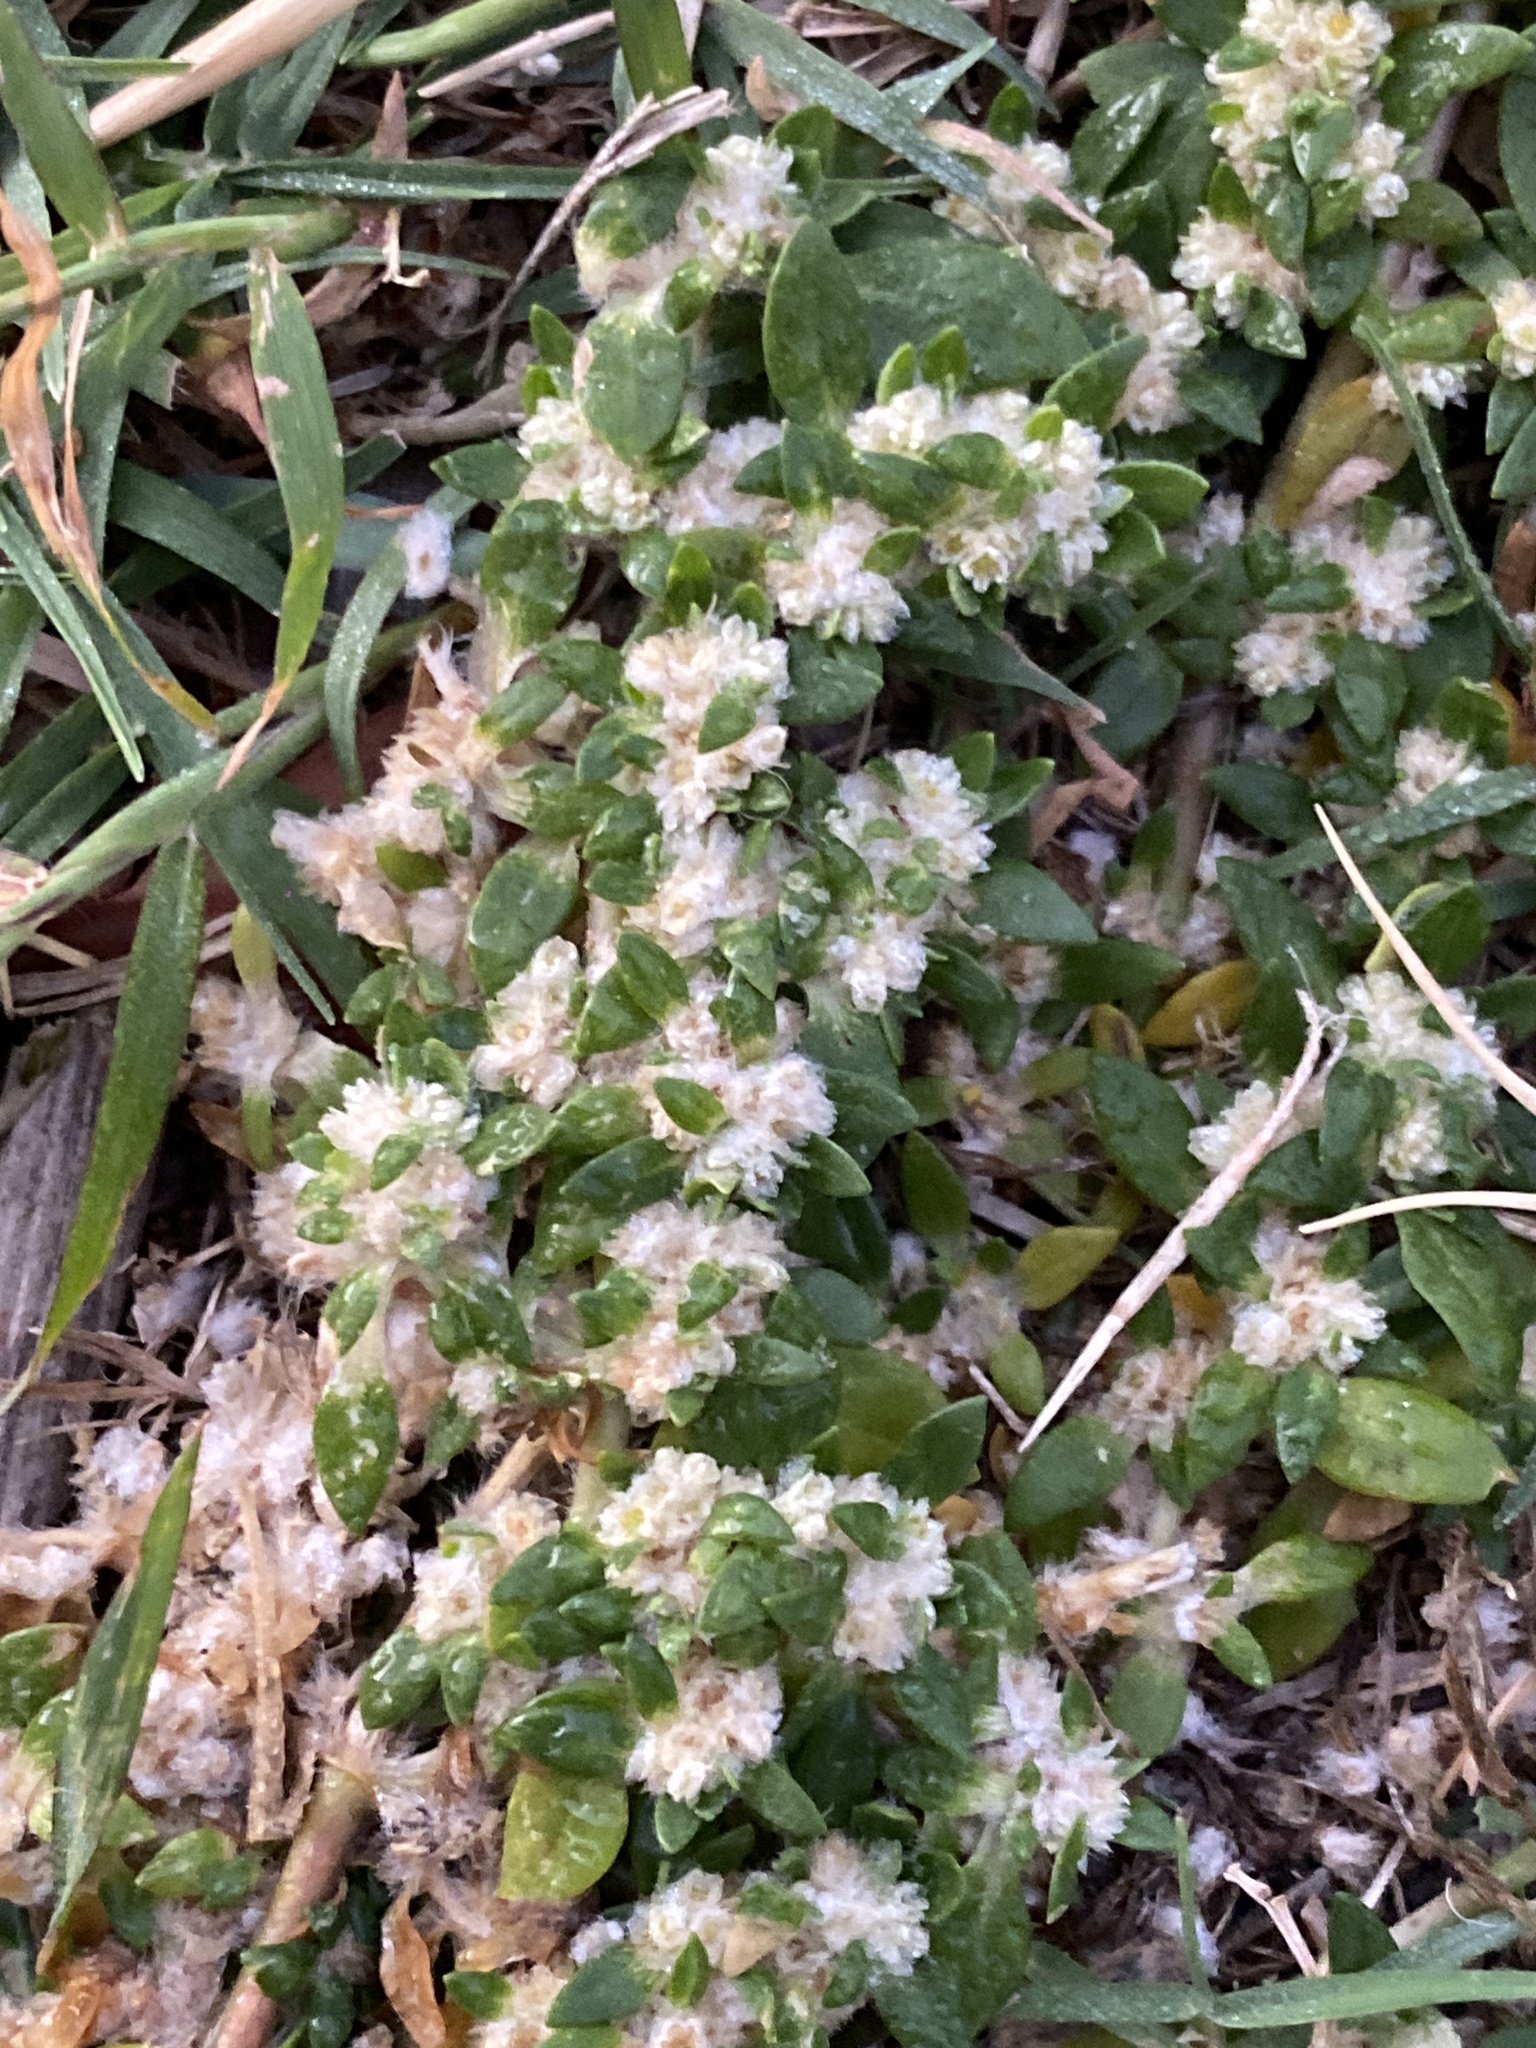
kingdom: Plantae
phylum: Tracheophyta
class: Magnoliopsida
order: Caryophyllales
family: Amaranthaceae
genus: Guilleminea
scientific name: Guilleminea densa
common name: Small matweed
